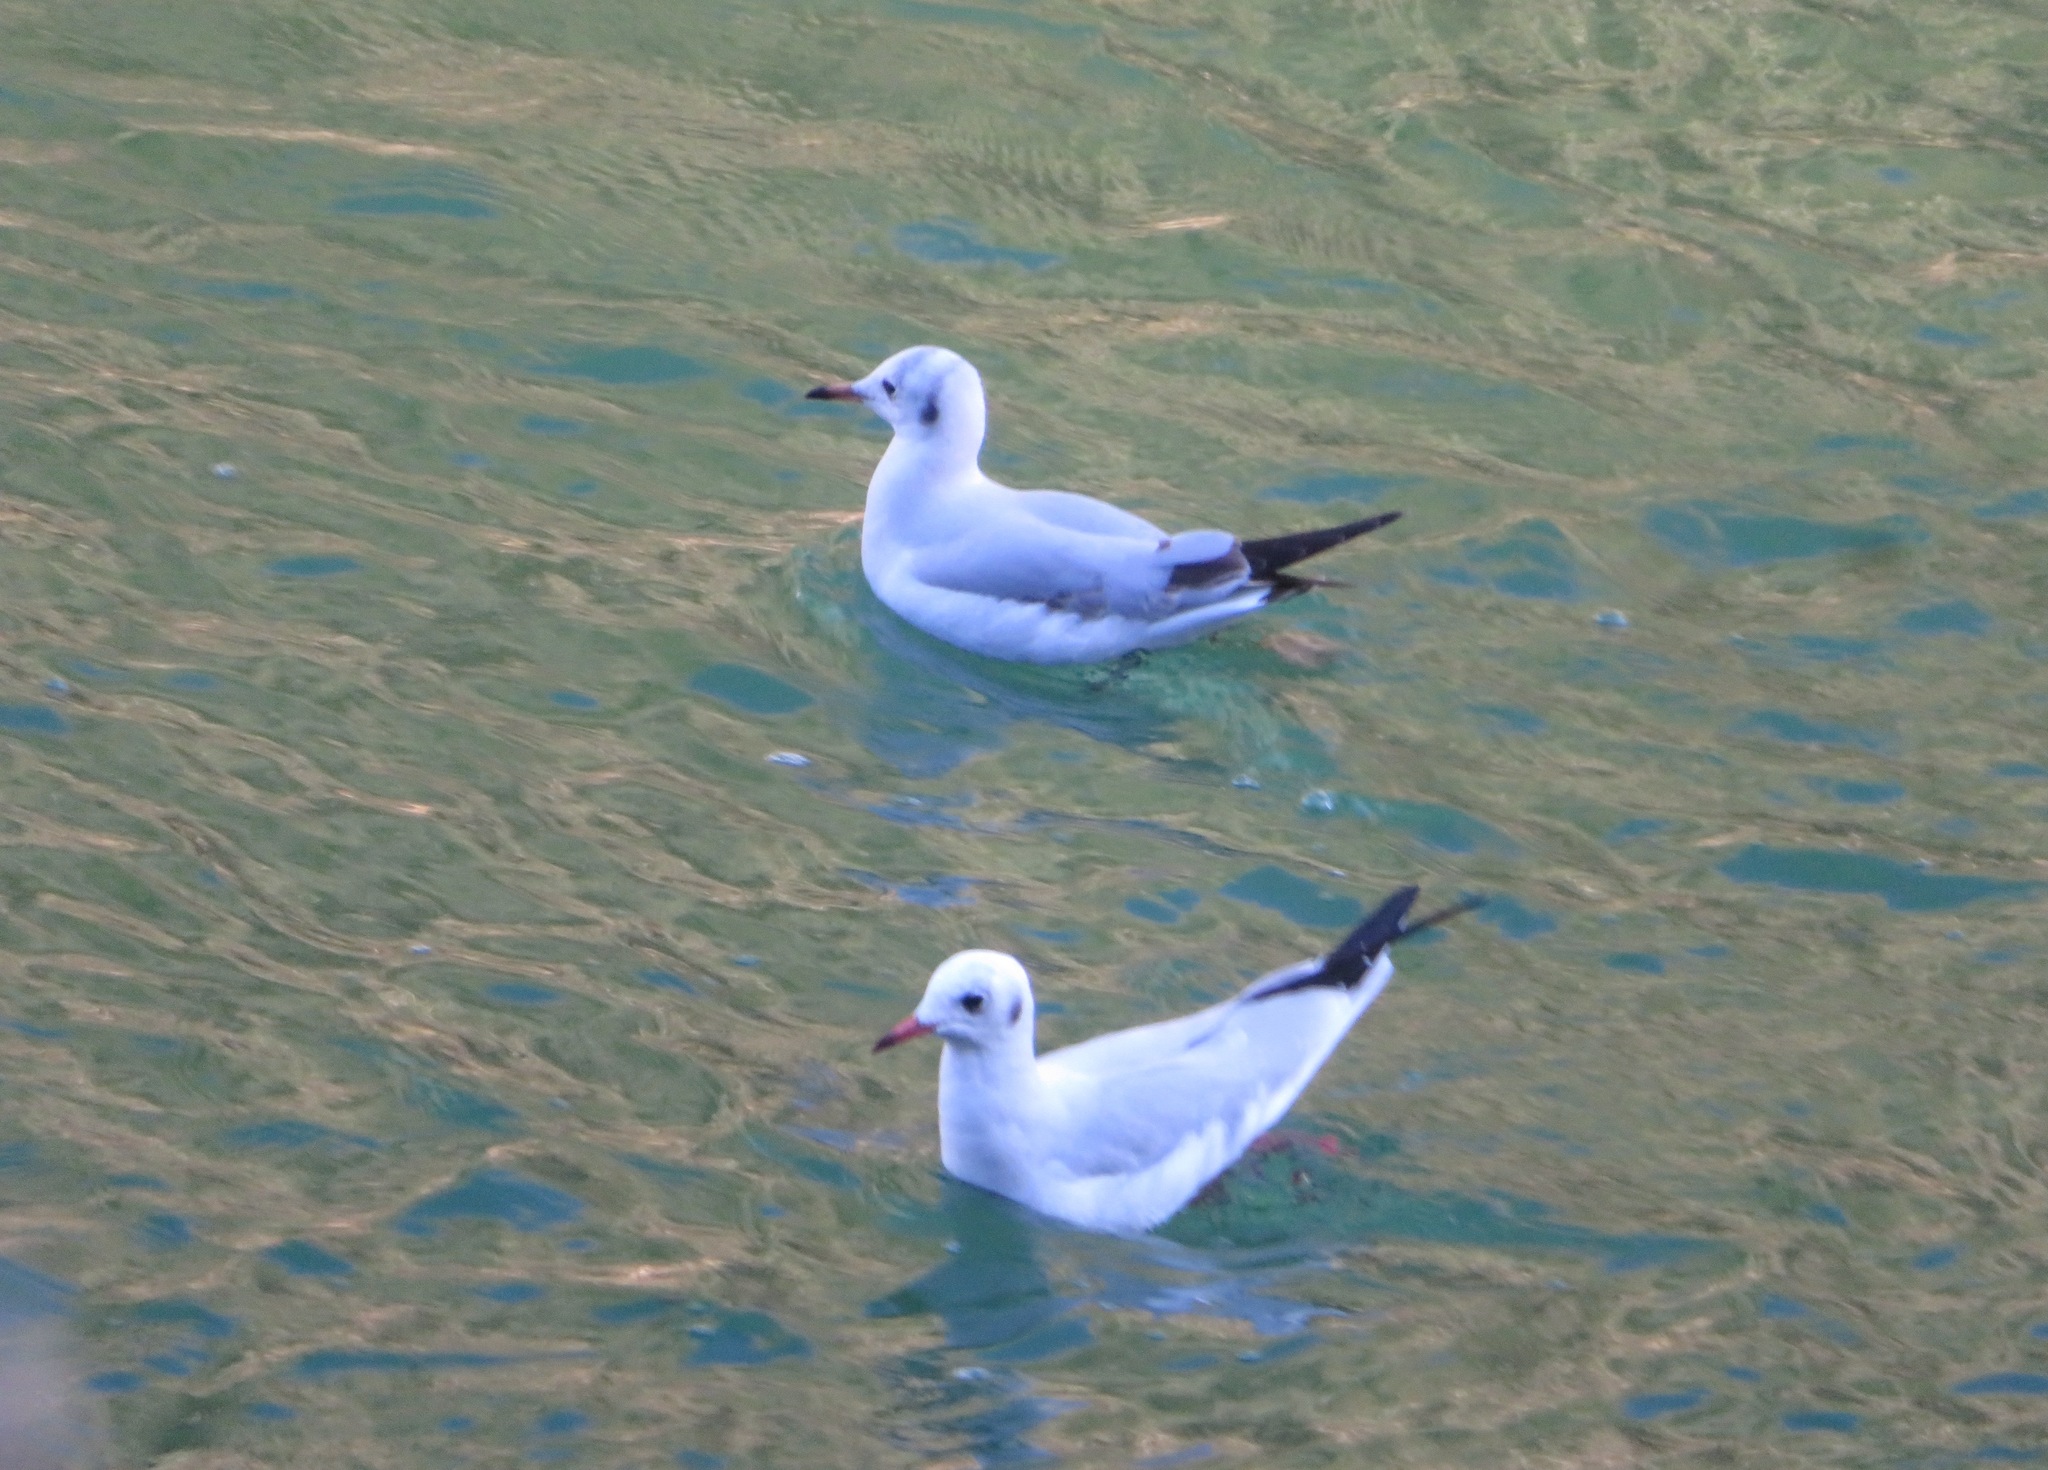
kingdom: Animalia
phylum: Chordata
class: Aves
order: Charadriiformes
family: Laridae
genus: Chroicocephalus
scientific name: Chroicocephalus ridibundus
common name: Black-headed gull
